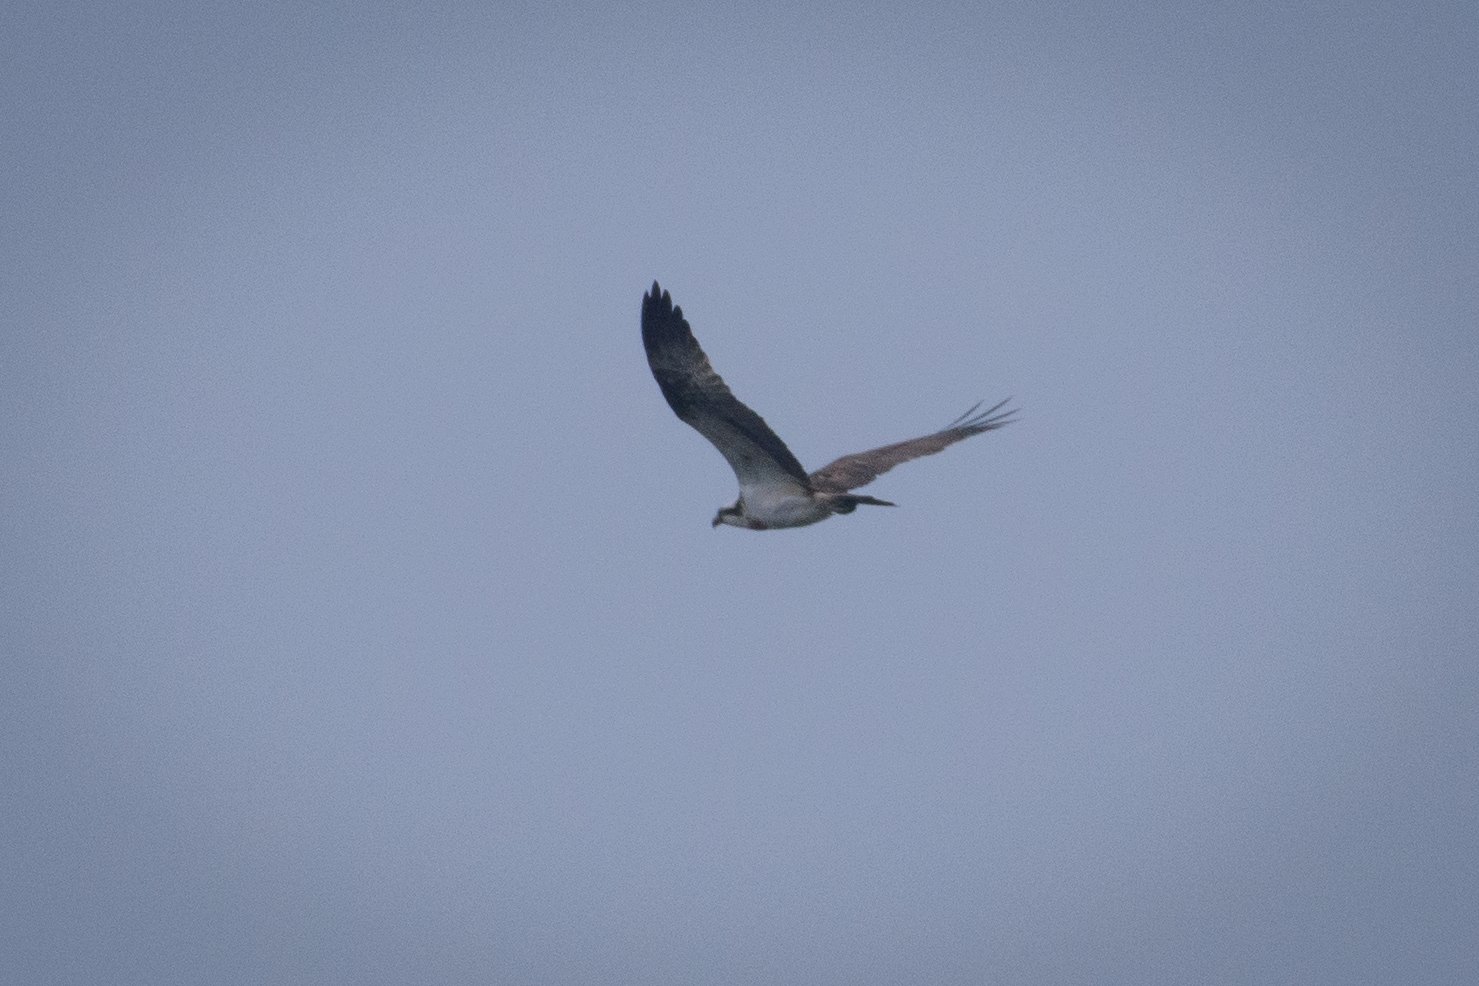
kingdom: Animalia
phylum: Chordata
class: Aves
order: Accipitriformes
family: Pandionidae
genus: Pandion
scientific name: Pandion haliaetus
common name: Osprey
